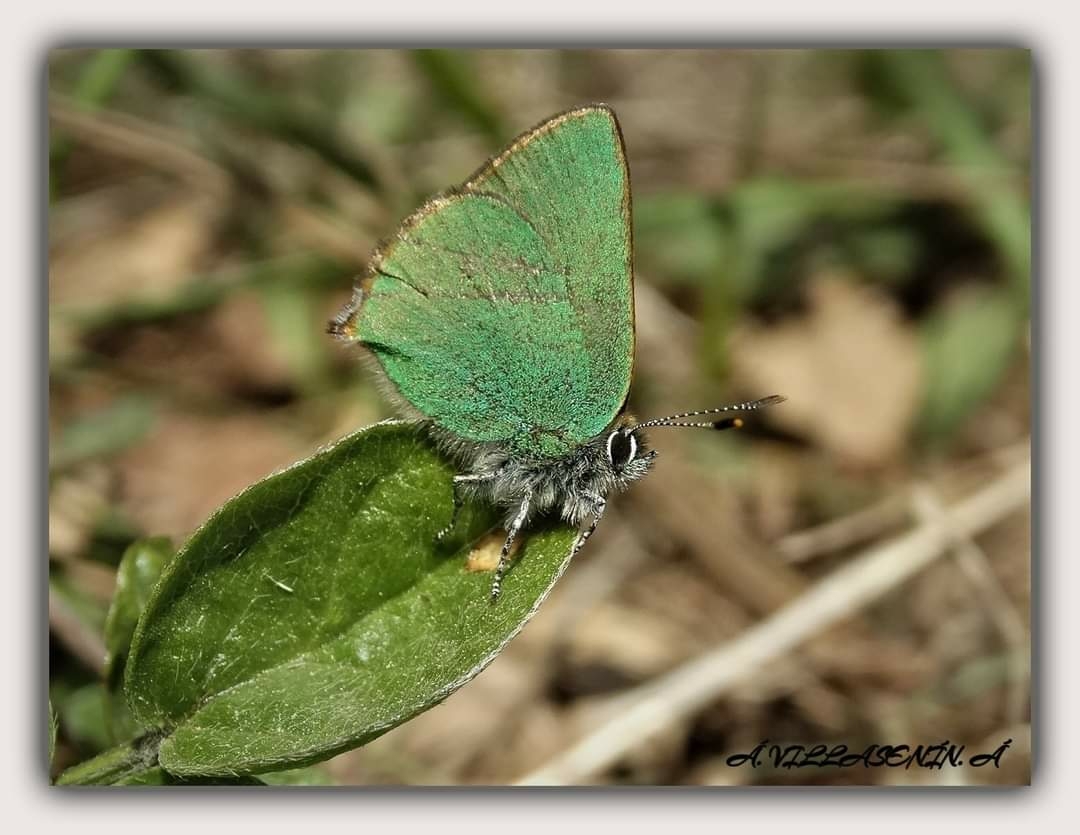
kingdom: Animalia
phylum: Arthropoda
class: Insecta
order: Lepidoptera
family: Lycaenidae
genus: Callophrys
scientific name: Callophrys rubi
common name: Green hairstreak
